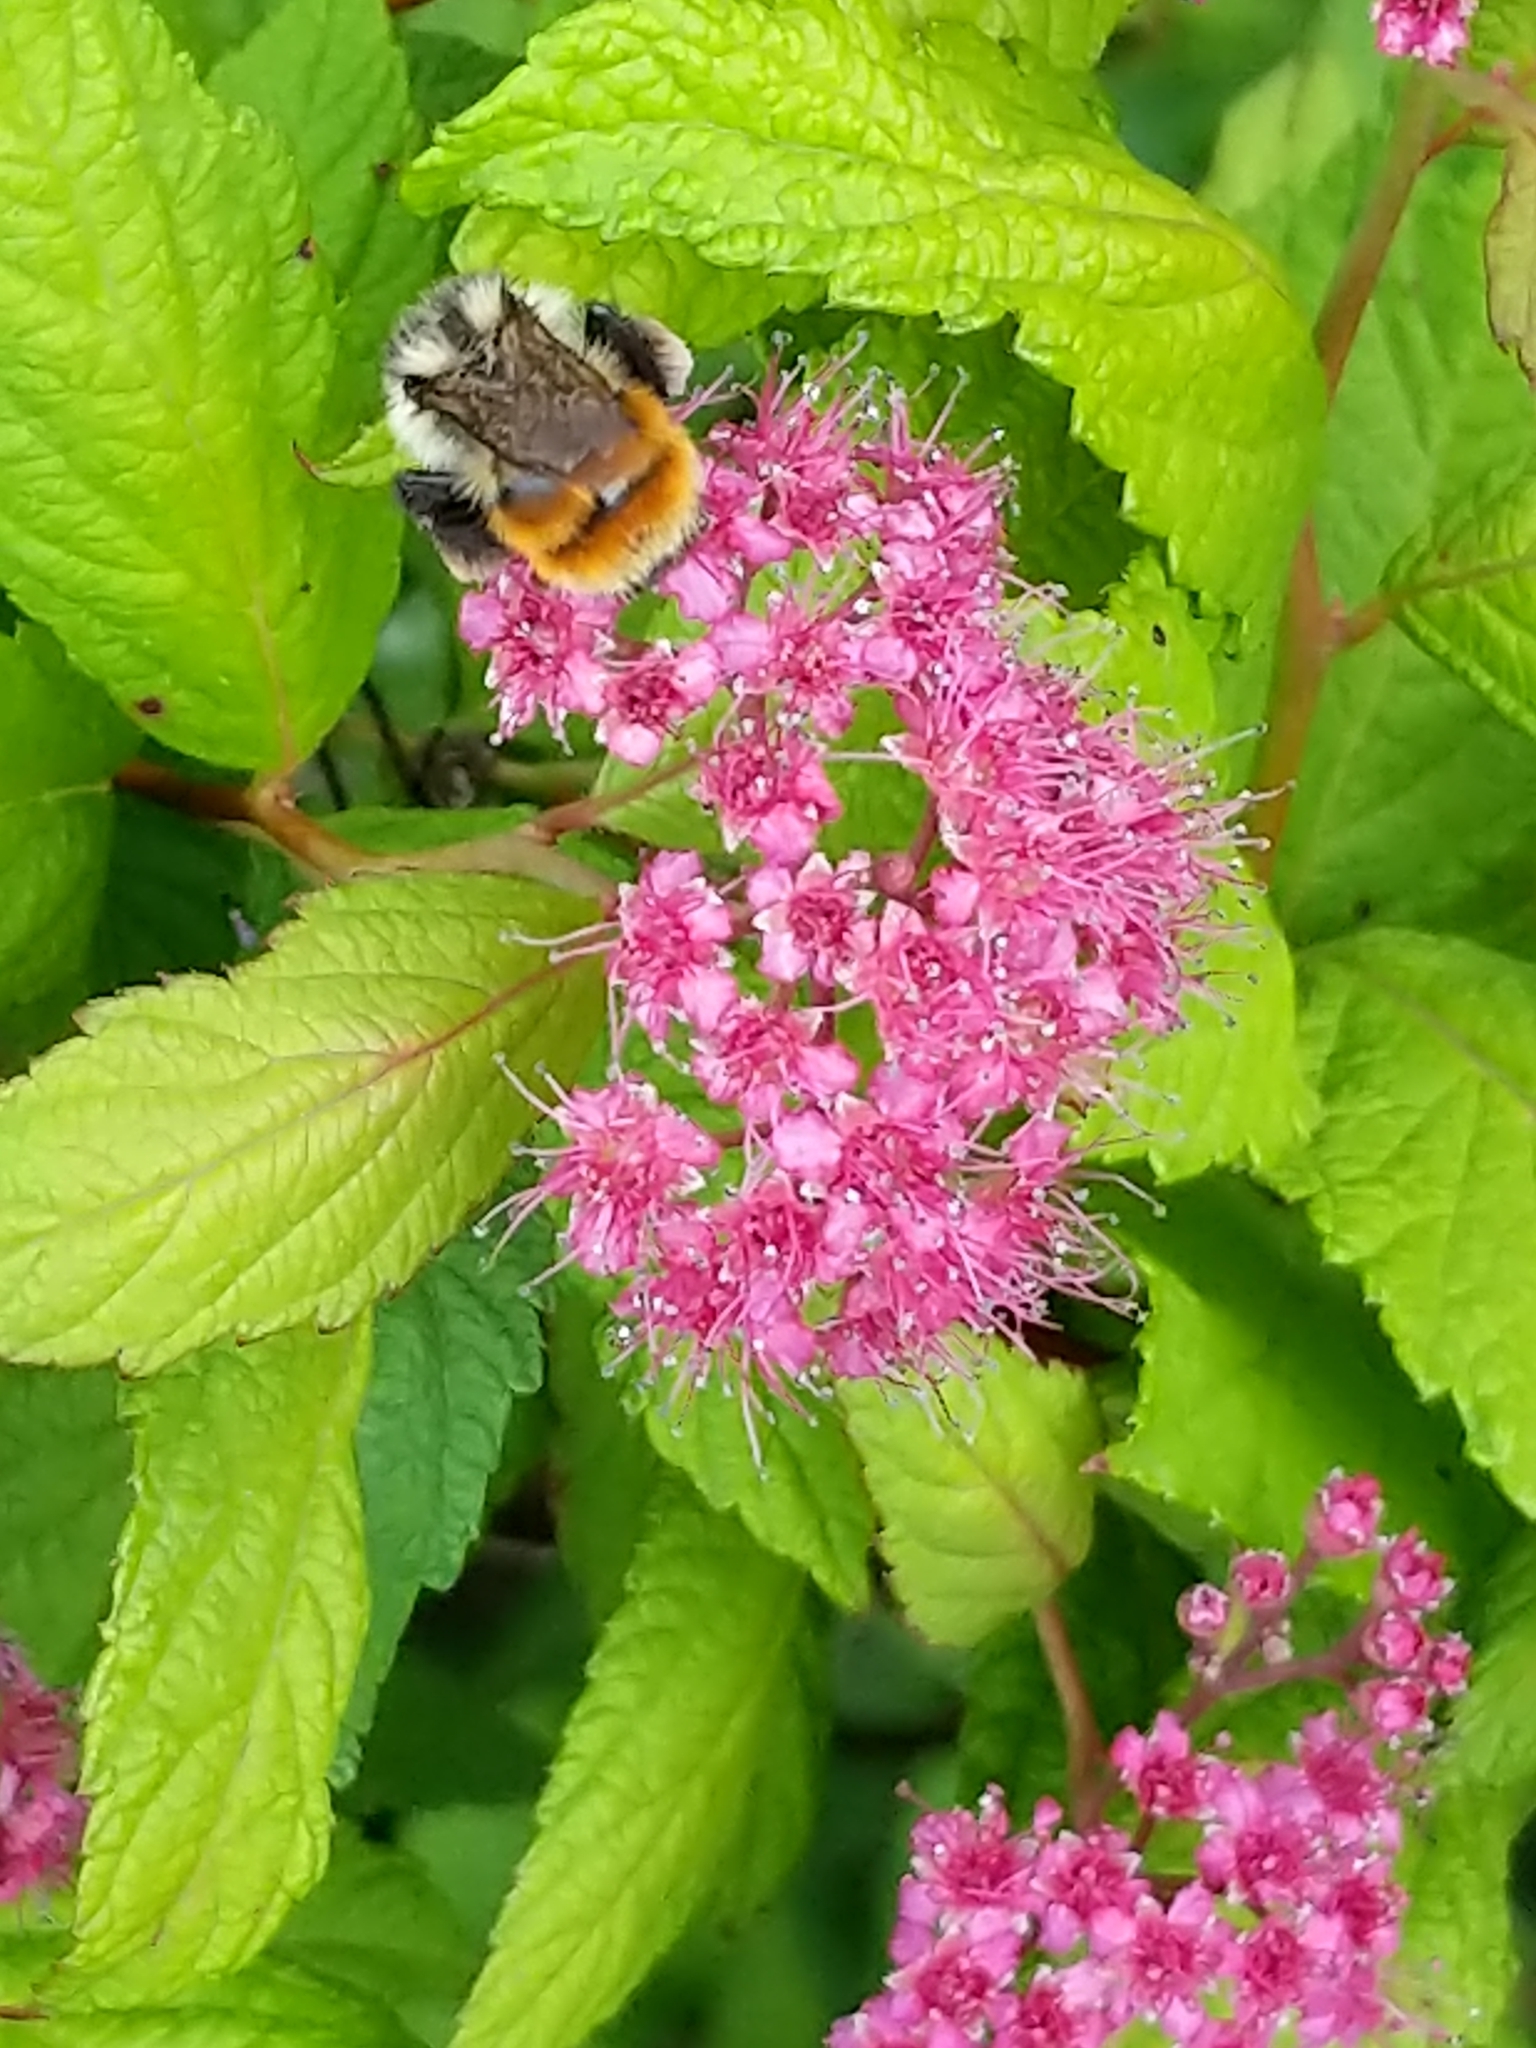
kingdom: Animalia
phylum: Arthropoda
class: Insecta
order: Hymenoptera
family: Apidae
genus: Bombus
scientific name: Bombus ternarius
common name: Tri-colored bumble bee
